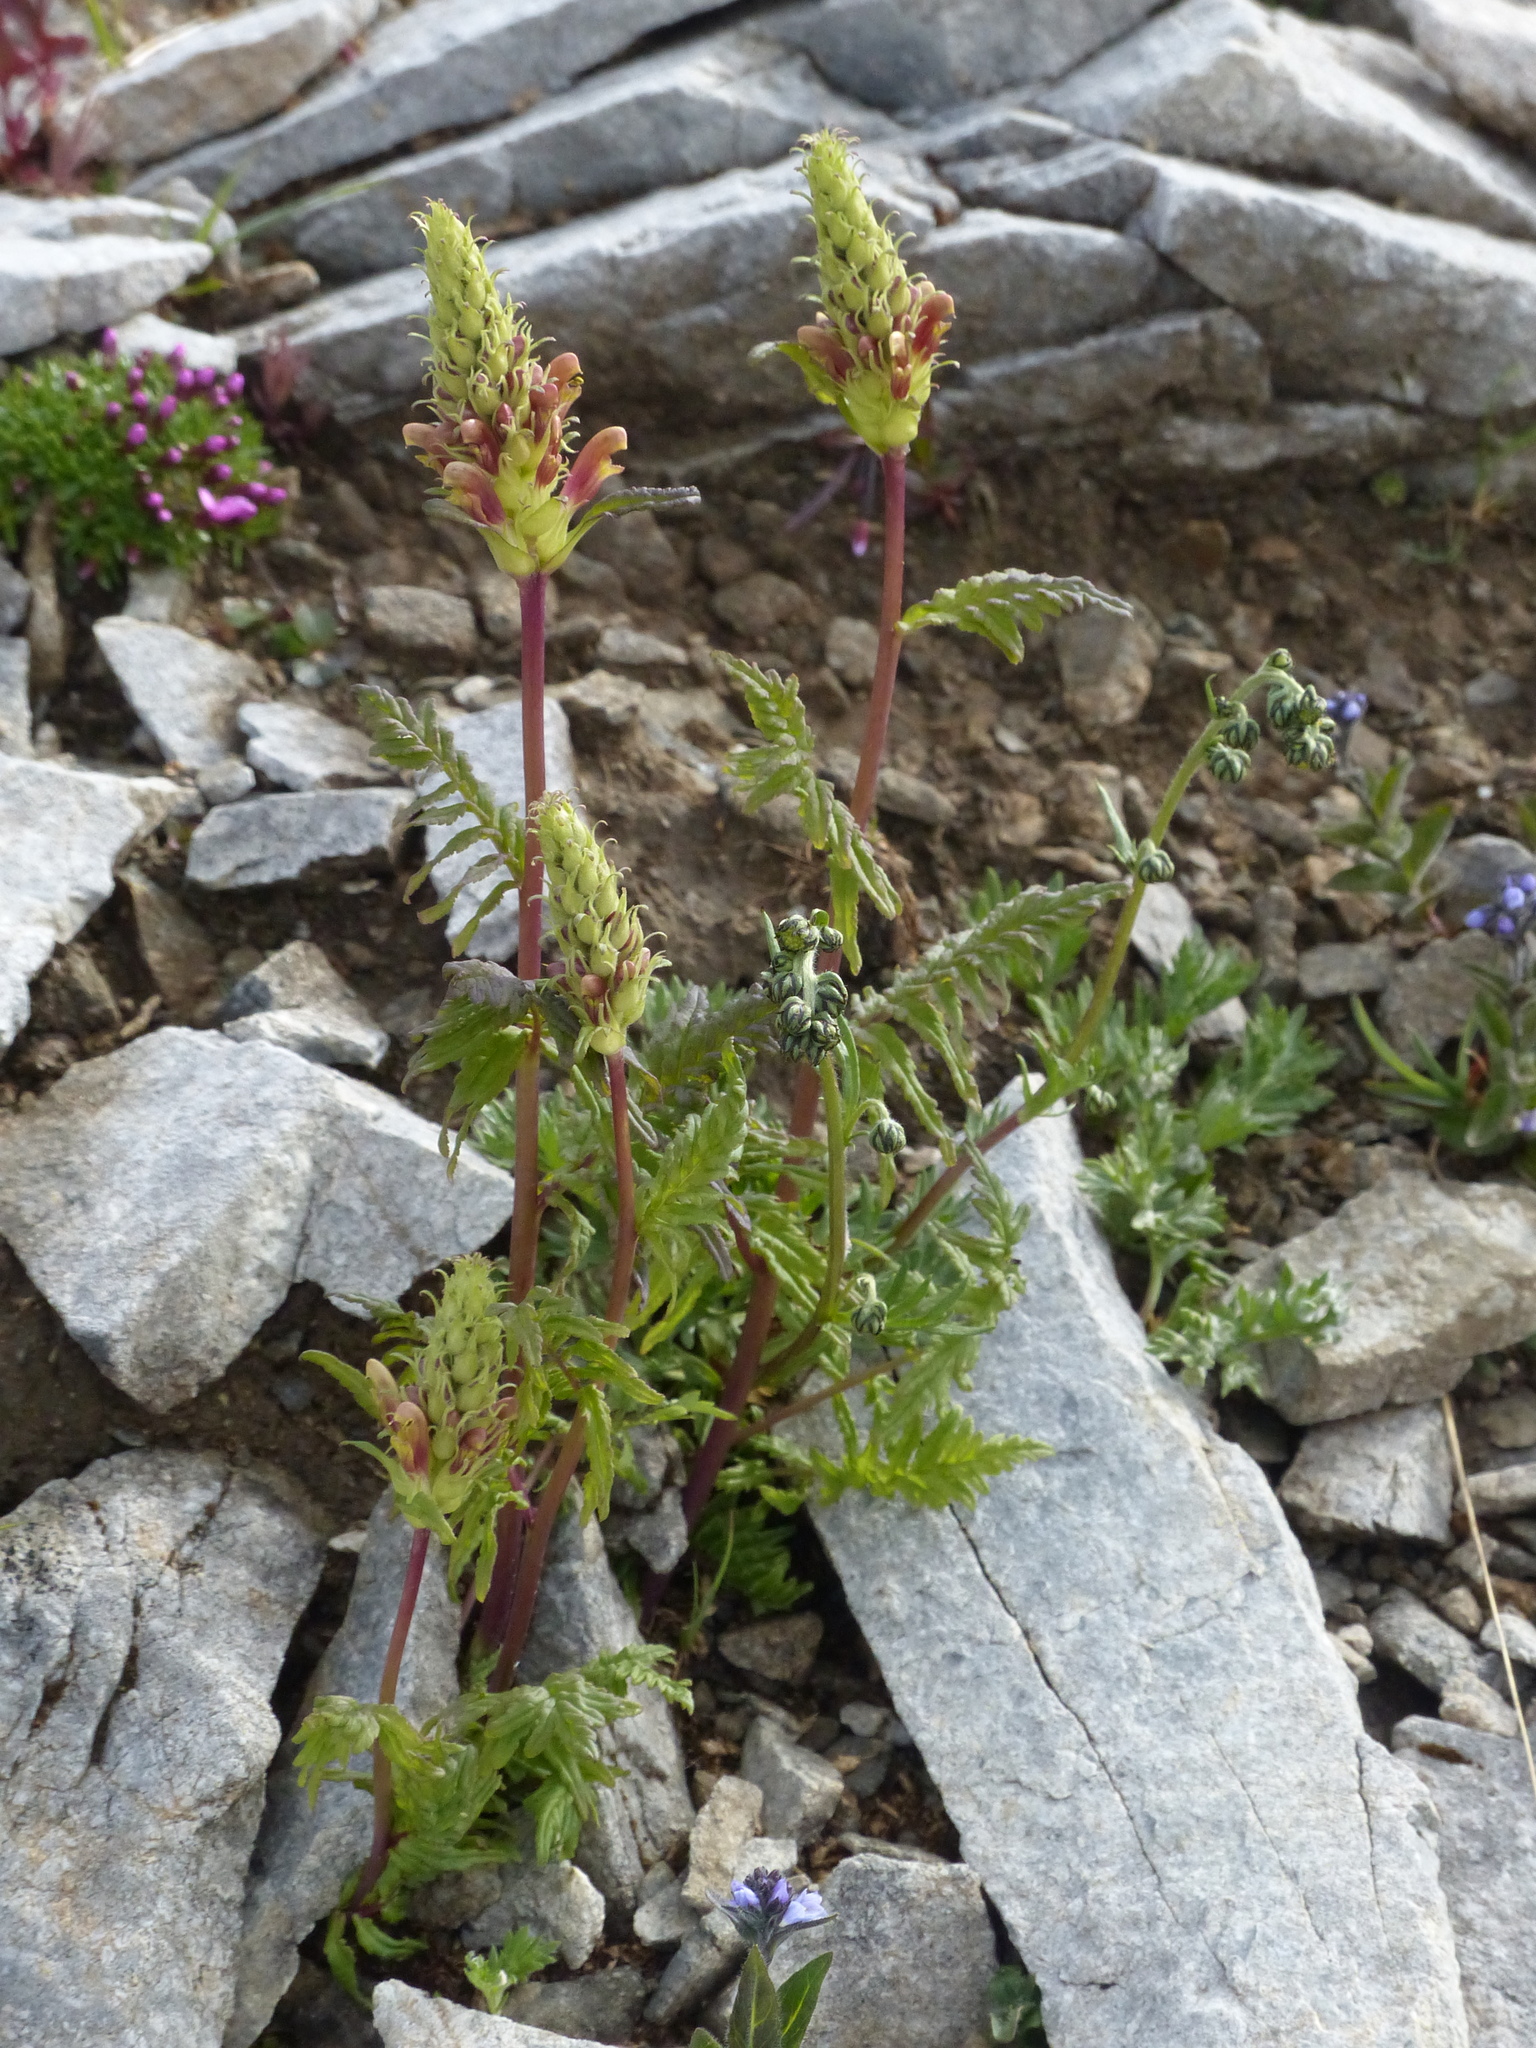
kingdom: Plantae
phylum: Tracheophyta
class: Magnoliopsida
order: Lamiales
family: Orobanchaceae
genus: Pedicularis
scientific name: Pedicularis bracteosa
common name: Bracted lousewort
